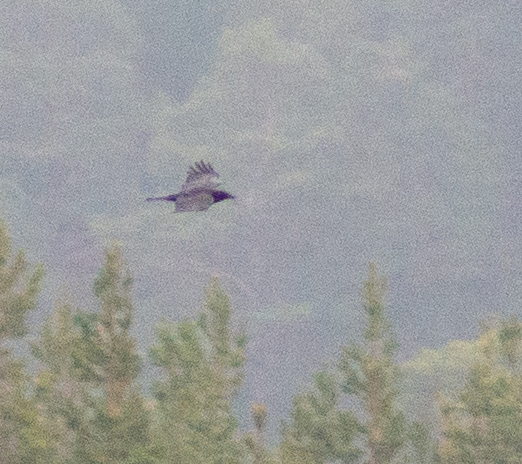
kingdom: Animalia
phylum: Chordata
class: Aves
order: Passeriformes
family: Corvidae
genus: Corvus
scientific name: Corvus corone
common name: Carrion crow
